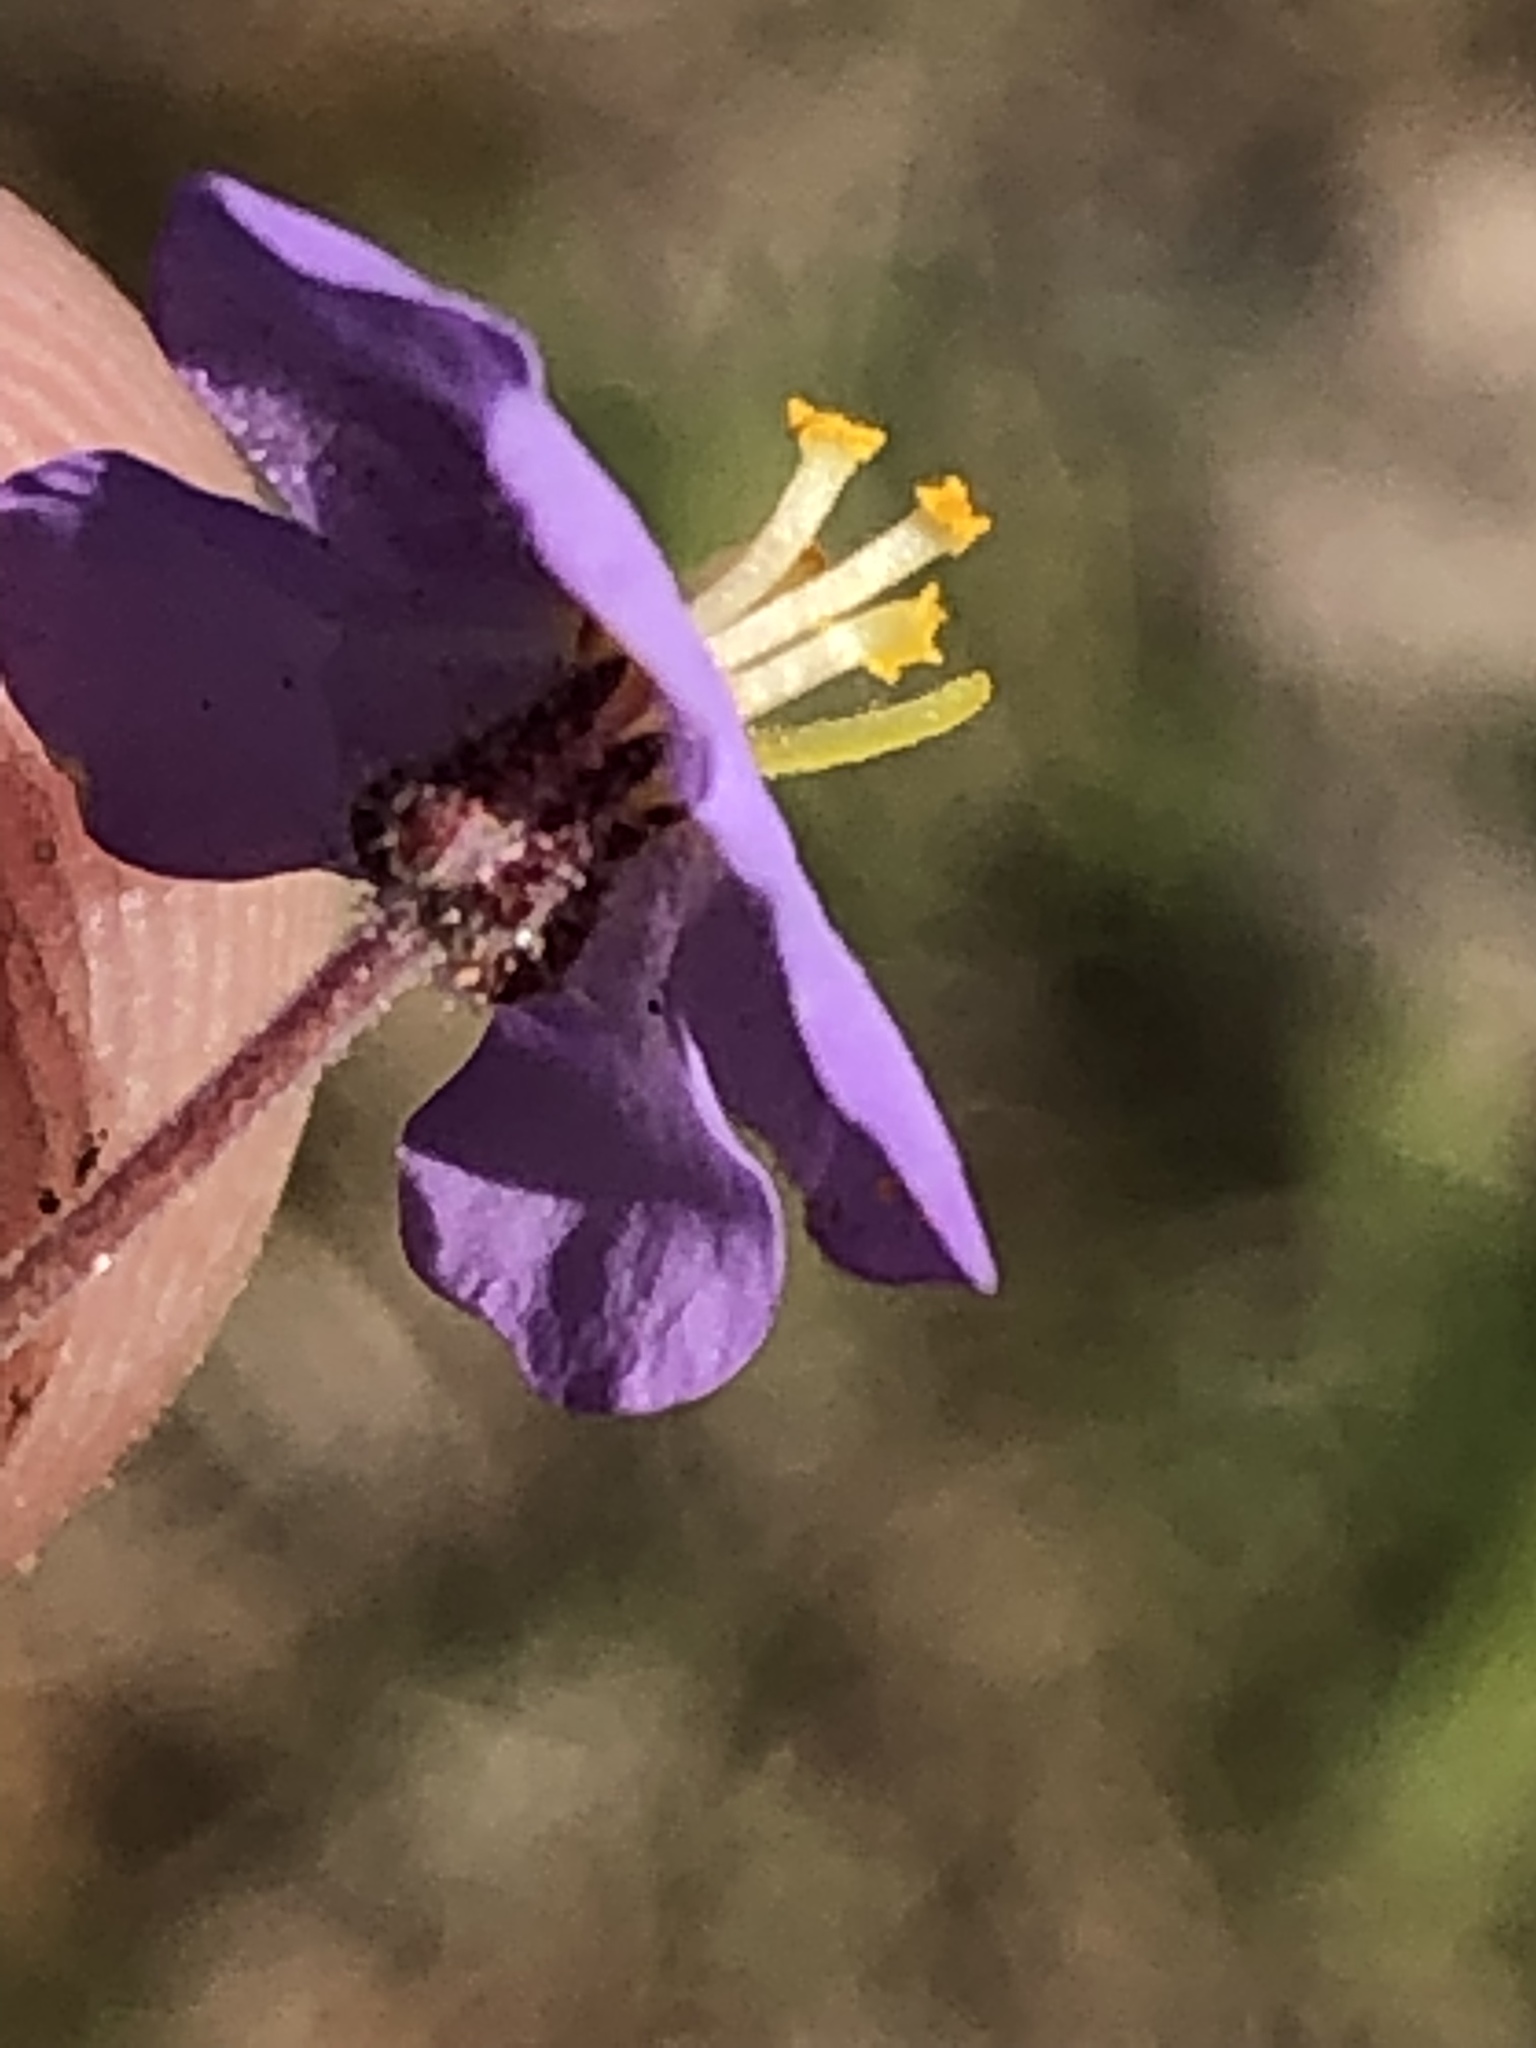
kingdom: Plantae
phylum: Tracheophyta
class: Magnoliopsida
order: Lamiales
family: Scrophulariaceae
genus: Chaenostoma
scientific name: Chaenostoma caeruleum
